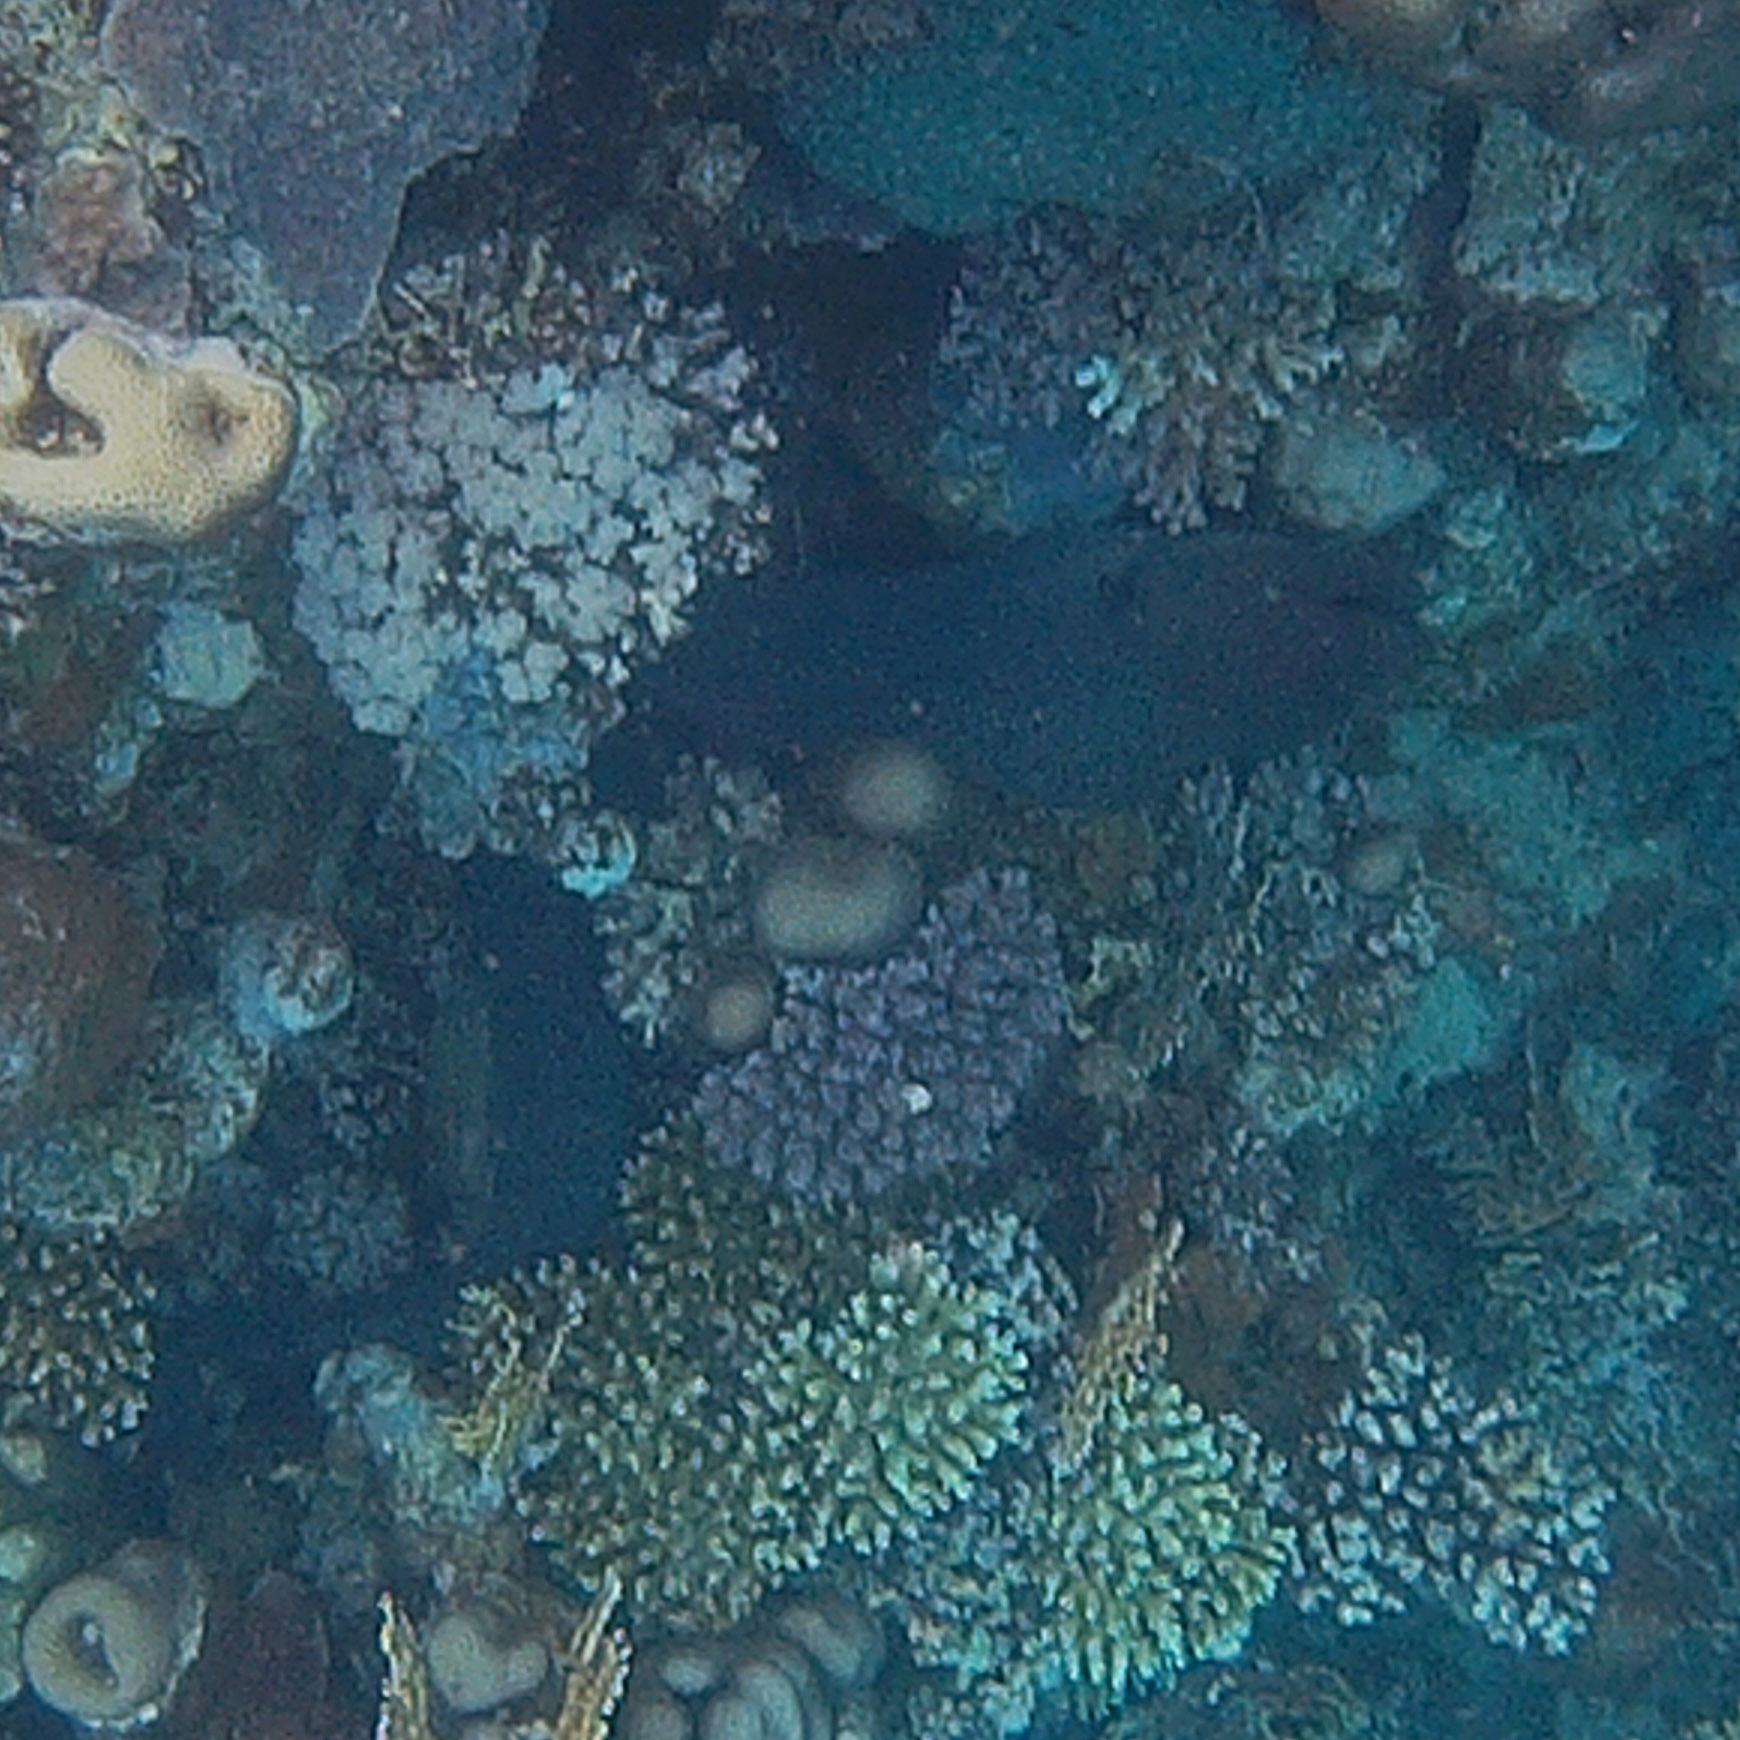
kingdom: Animalia
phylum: Chordata
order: Anguilliformes
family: Muraenidae
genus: Gymnothorax
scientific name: Gymnothorax javanicus
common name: Giant moray
